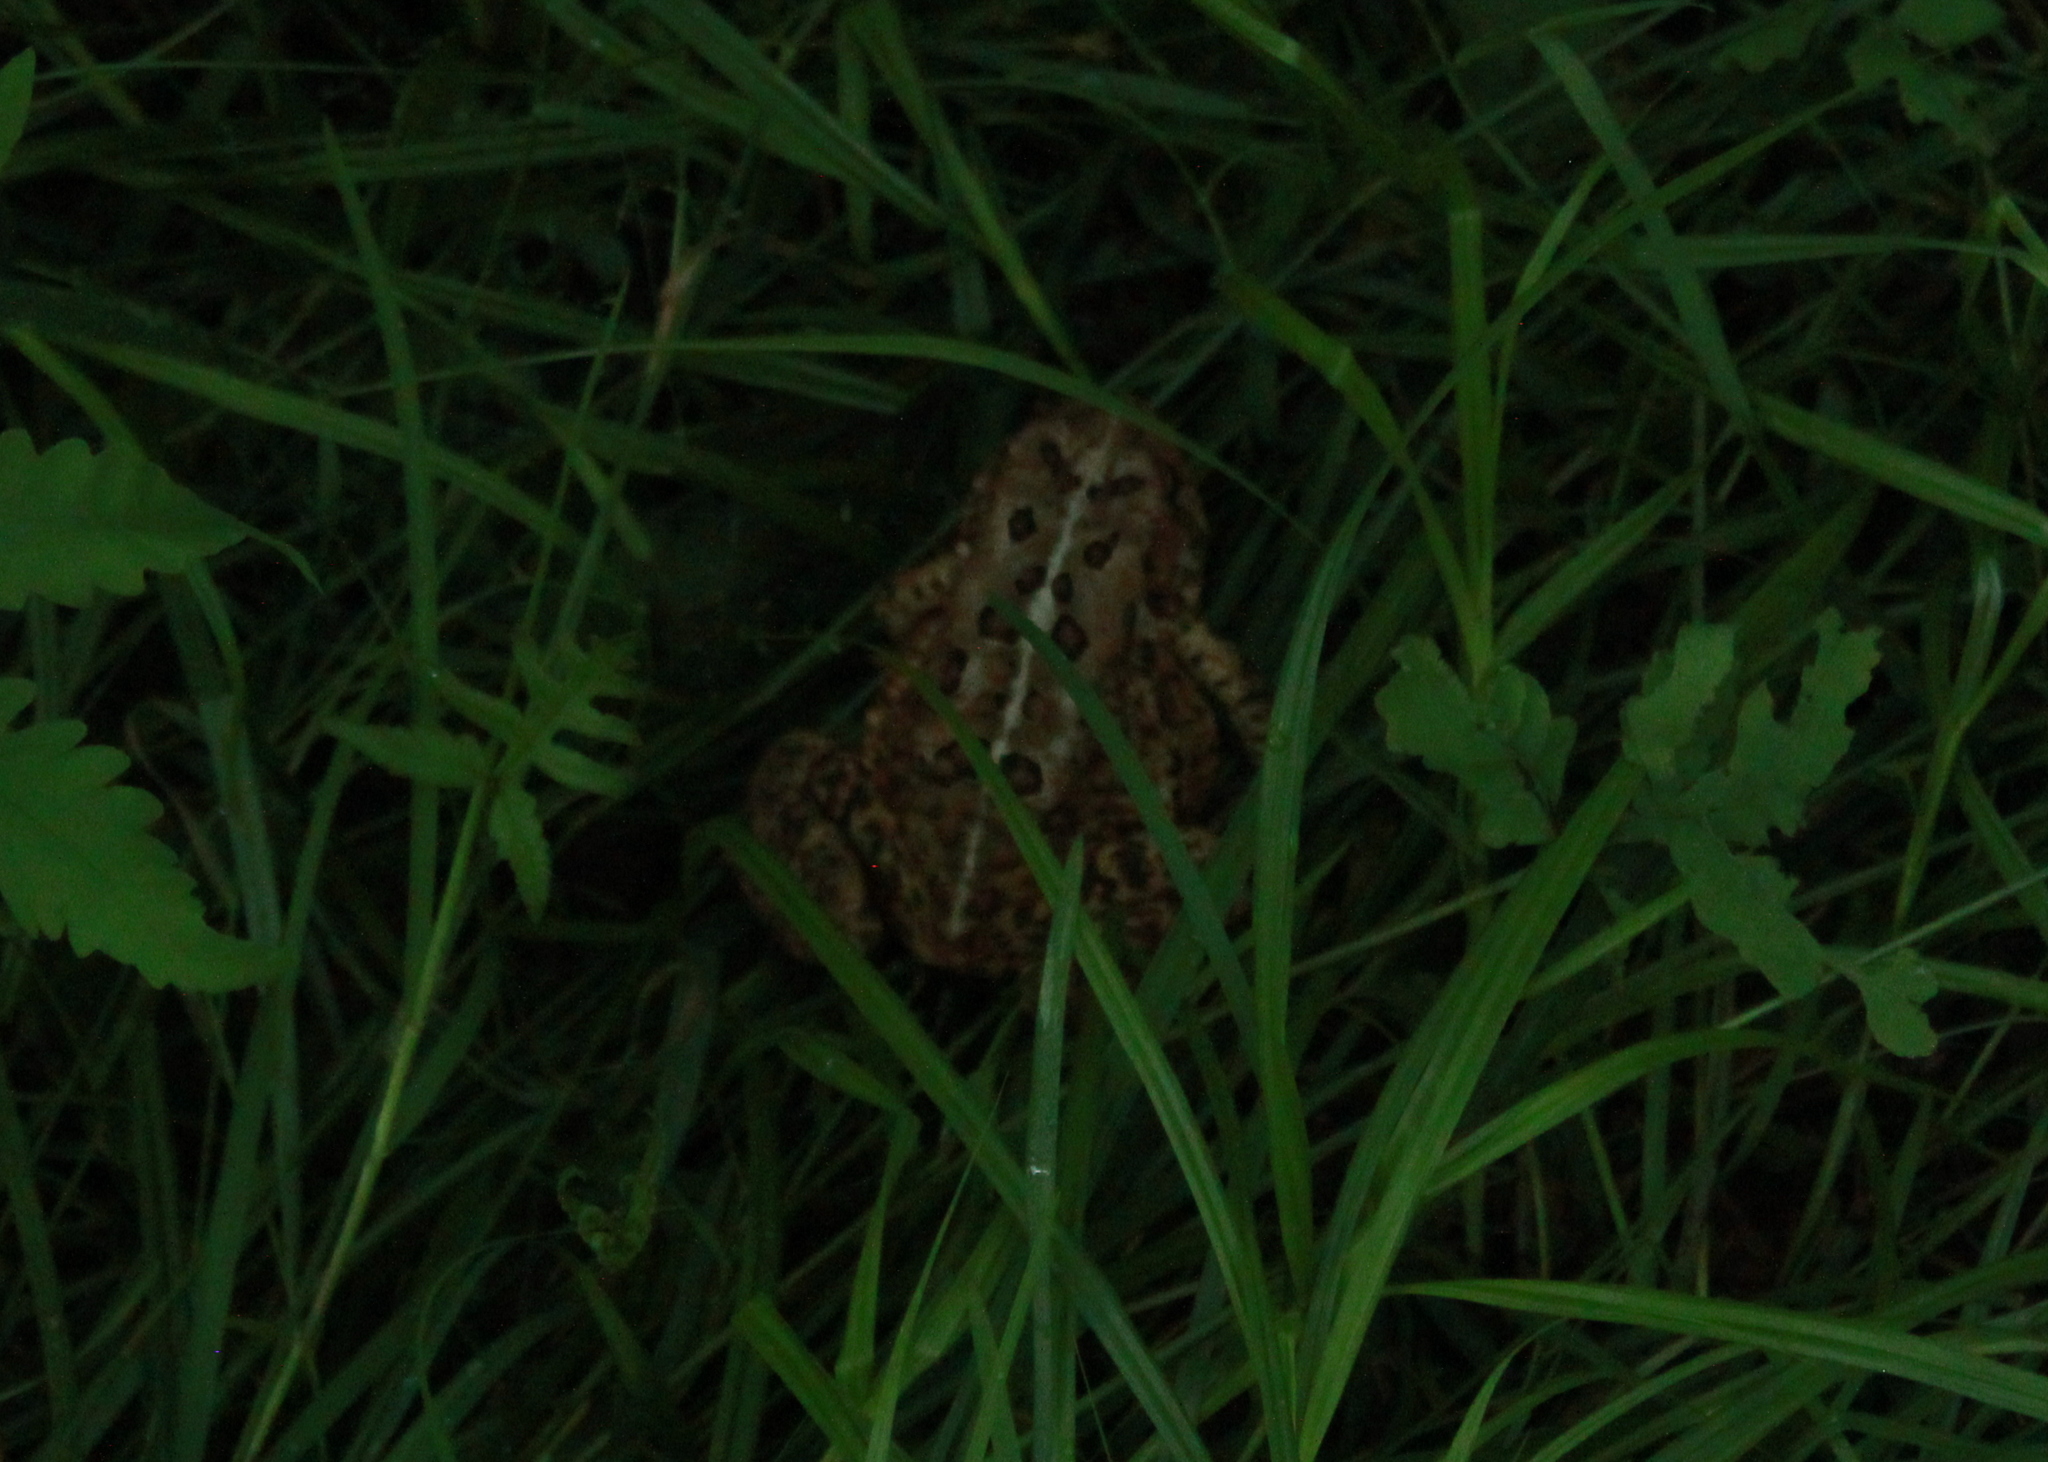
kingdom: Animalia
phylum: Chordata
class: Amphibia
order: Anura
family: Bufonidae
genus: Anaxyrus
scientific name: Anaxyrus americanus
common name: American toad
